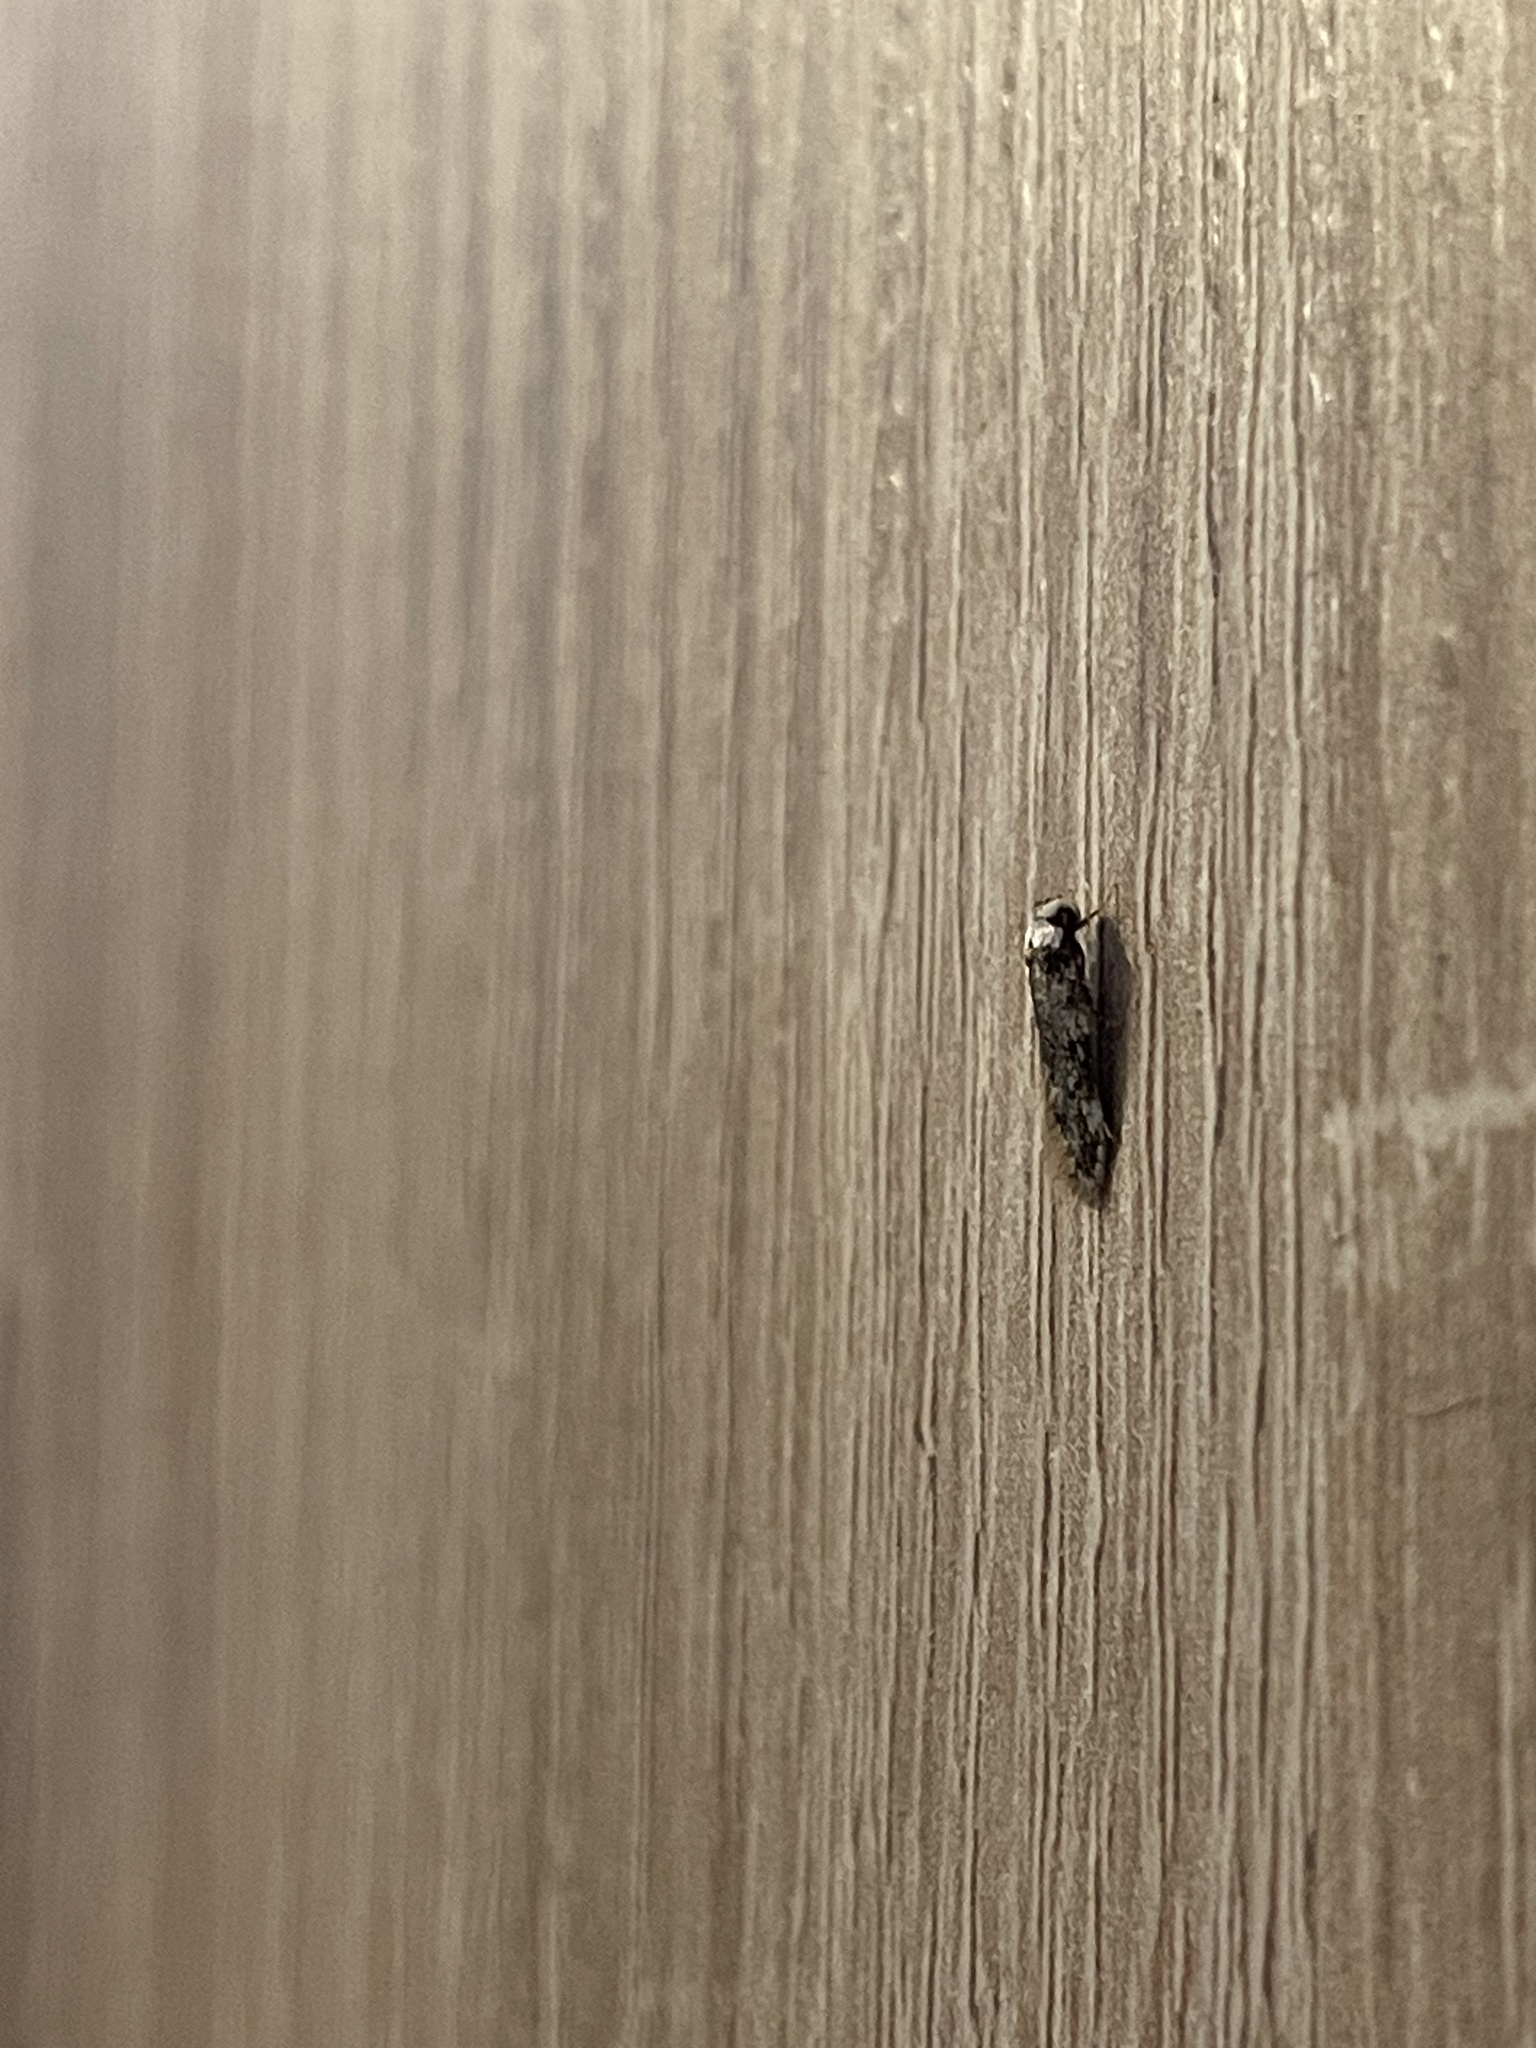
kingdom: Animalia
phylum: Arthropoda
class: Insecta
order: Lepidoptera
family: Oecophoridae
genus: Endrosis
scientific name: Endrosis sarcitrella
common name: White-shouldered house moth
